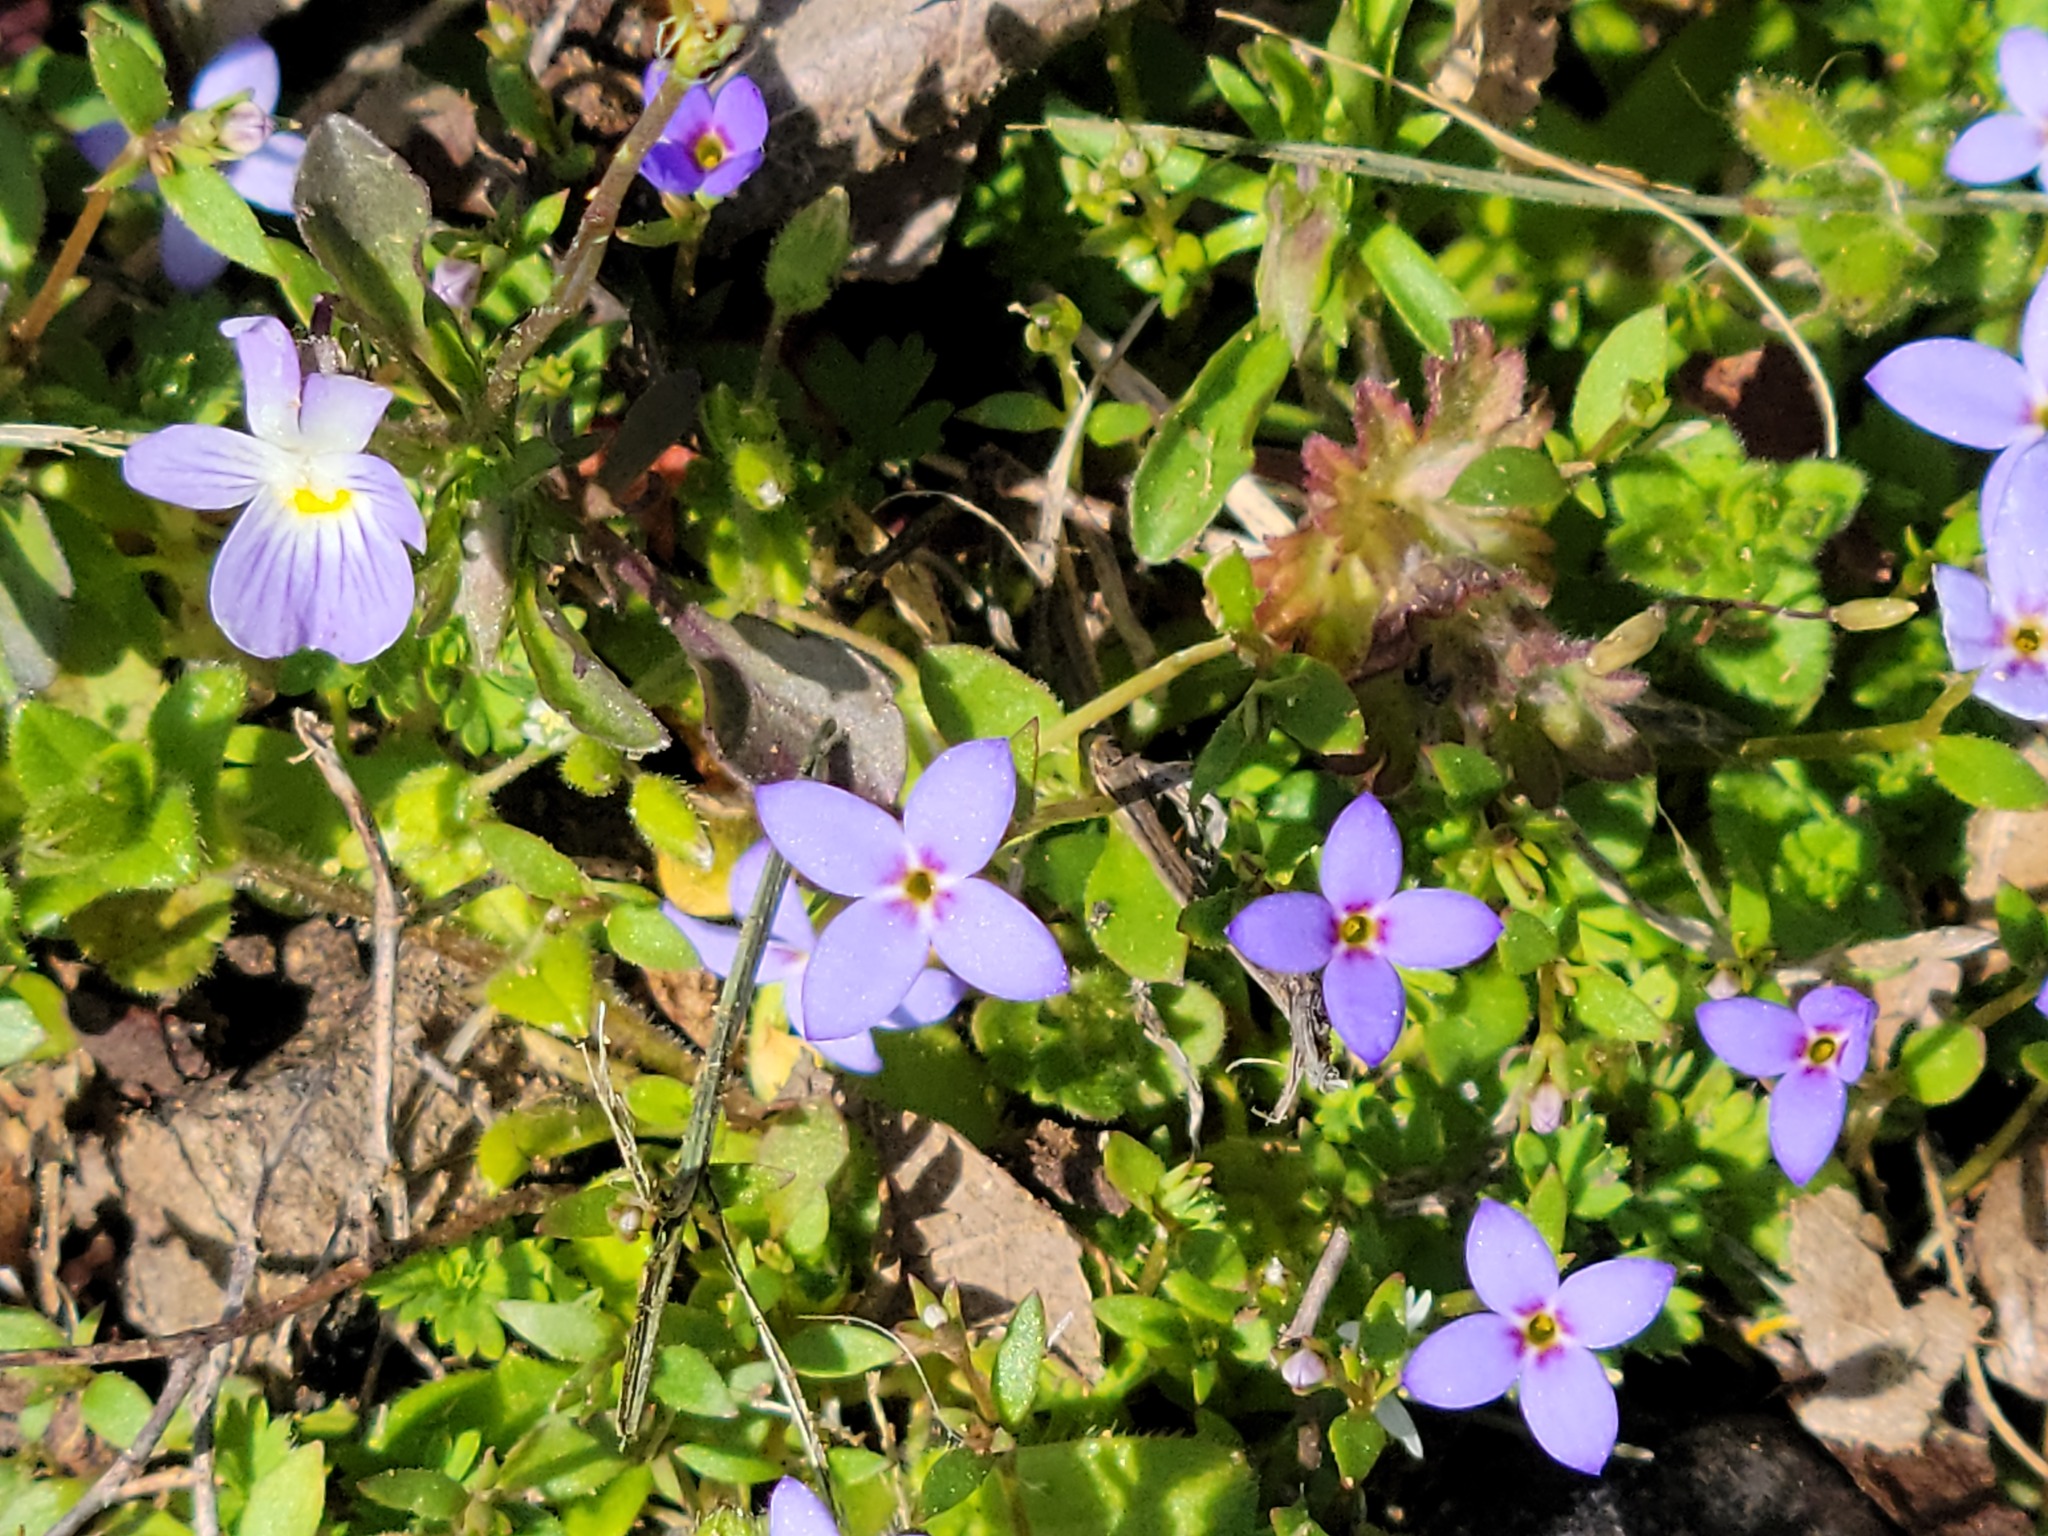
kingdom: Plantae
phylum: Tracheophyta
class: Magnoliopsida
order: Gentianales
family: Rubiaceae
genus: Houstonia
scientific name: Houstonia pusilla
